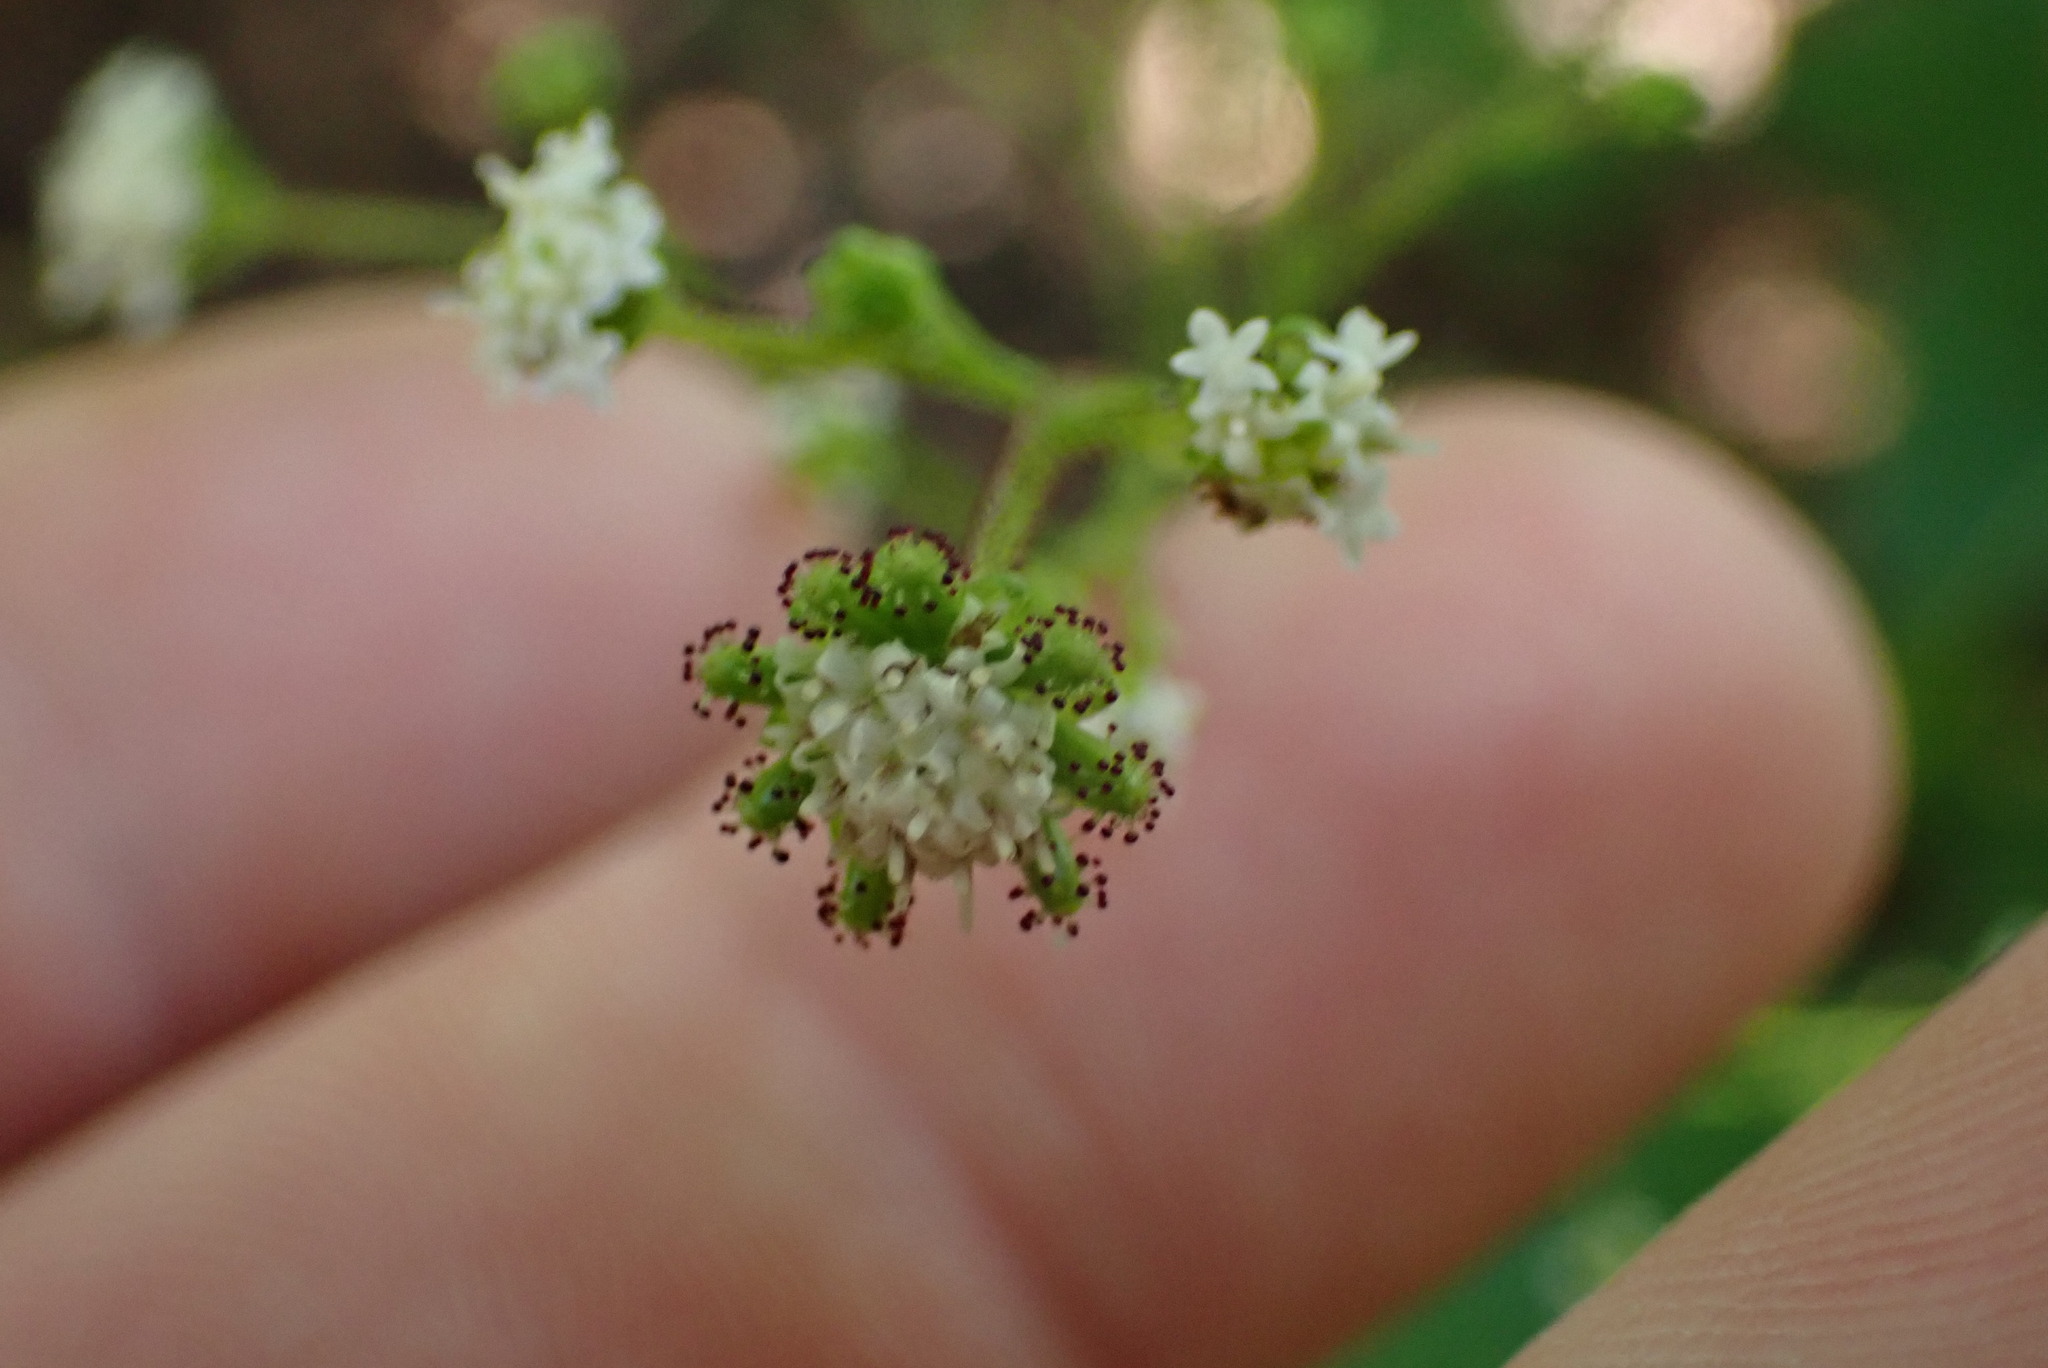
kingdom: Plantae
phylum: Tracheophyta
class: Magnoliopsida
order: Asterales
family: Asteraceae
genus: Adenocaulon
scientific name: Adenocaulon bicolor
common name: Trailplant
